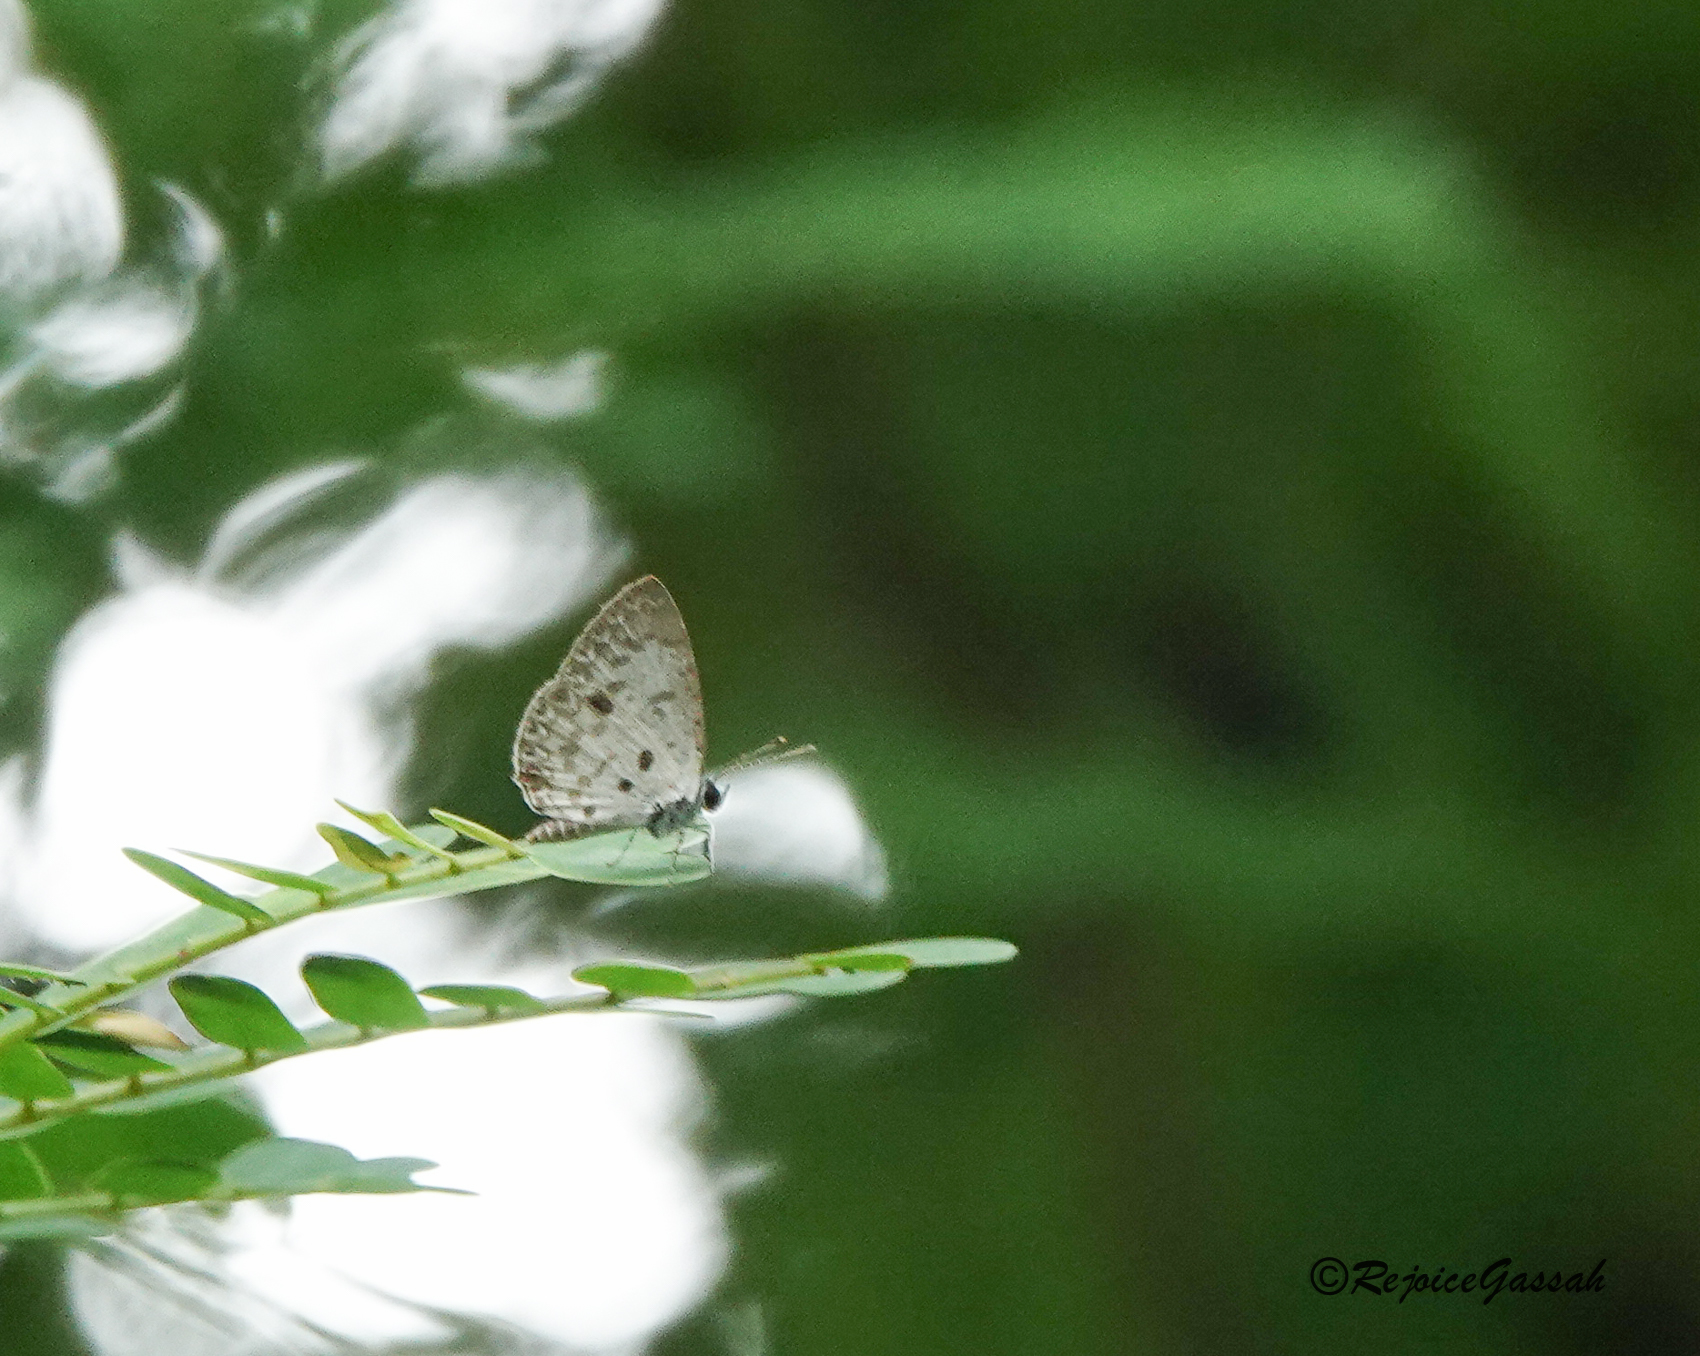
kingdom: Animalia
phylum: Arthropoda
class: Insecta
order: Lepidoptera
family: Lycaenidae
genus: Megisba
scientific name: Megisba malaya
